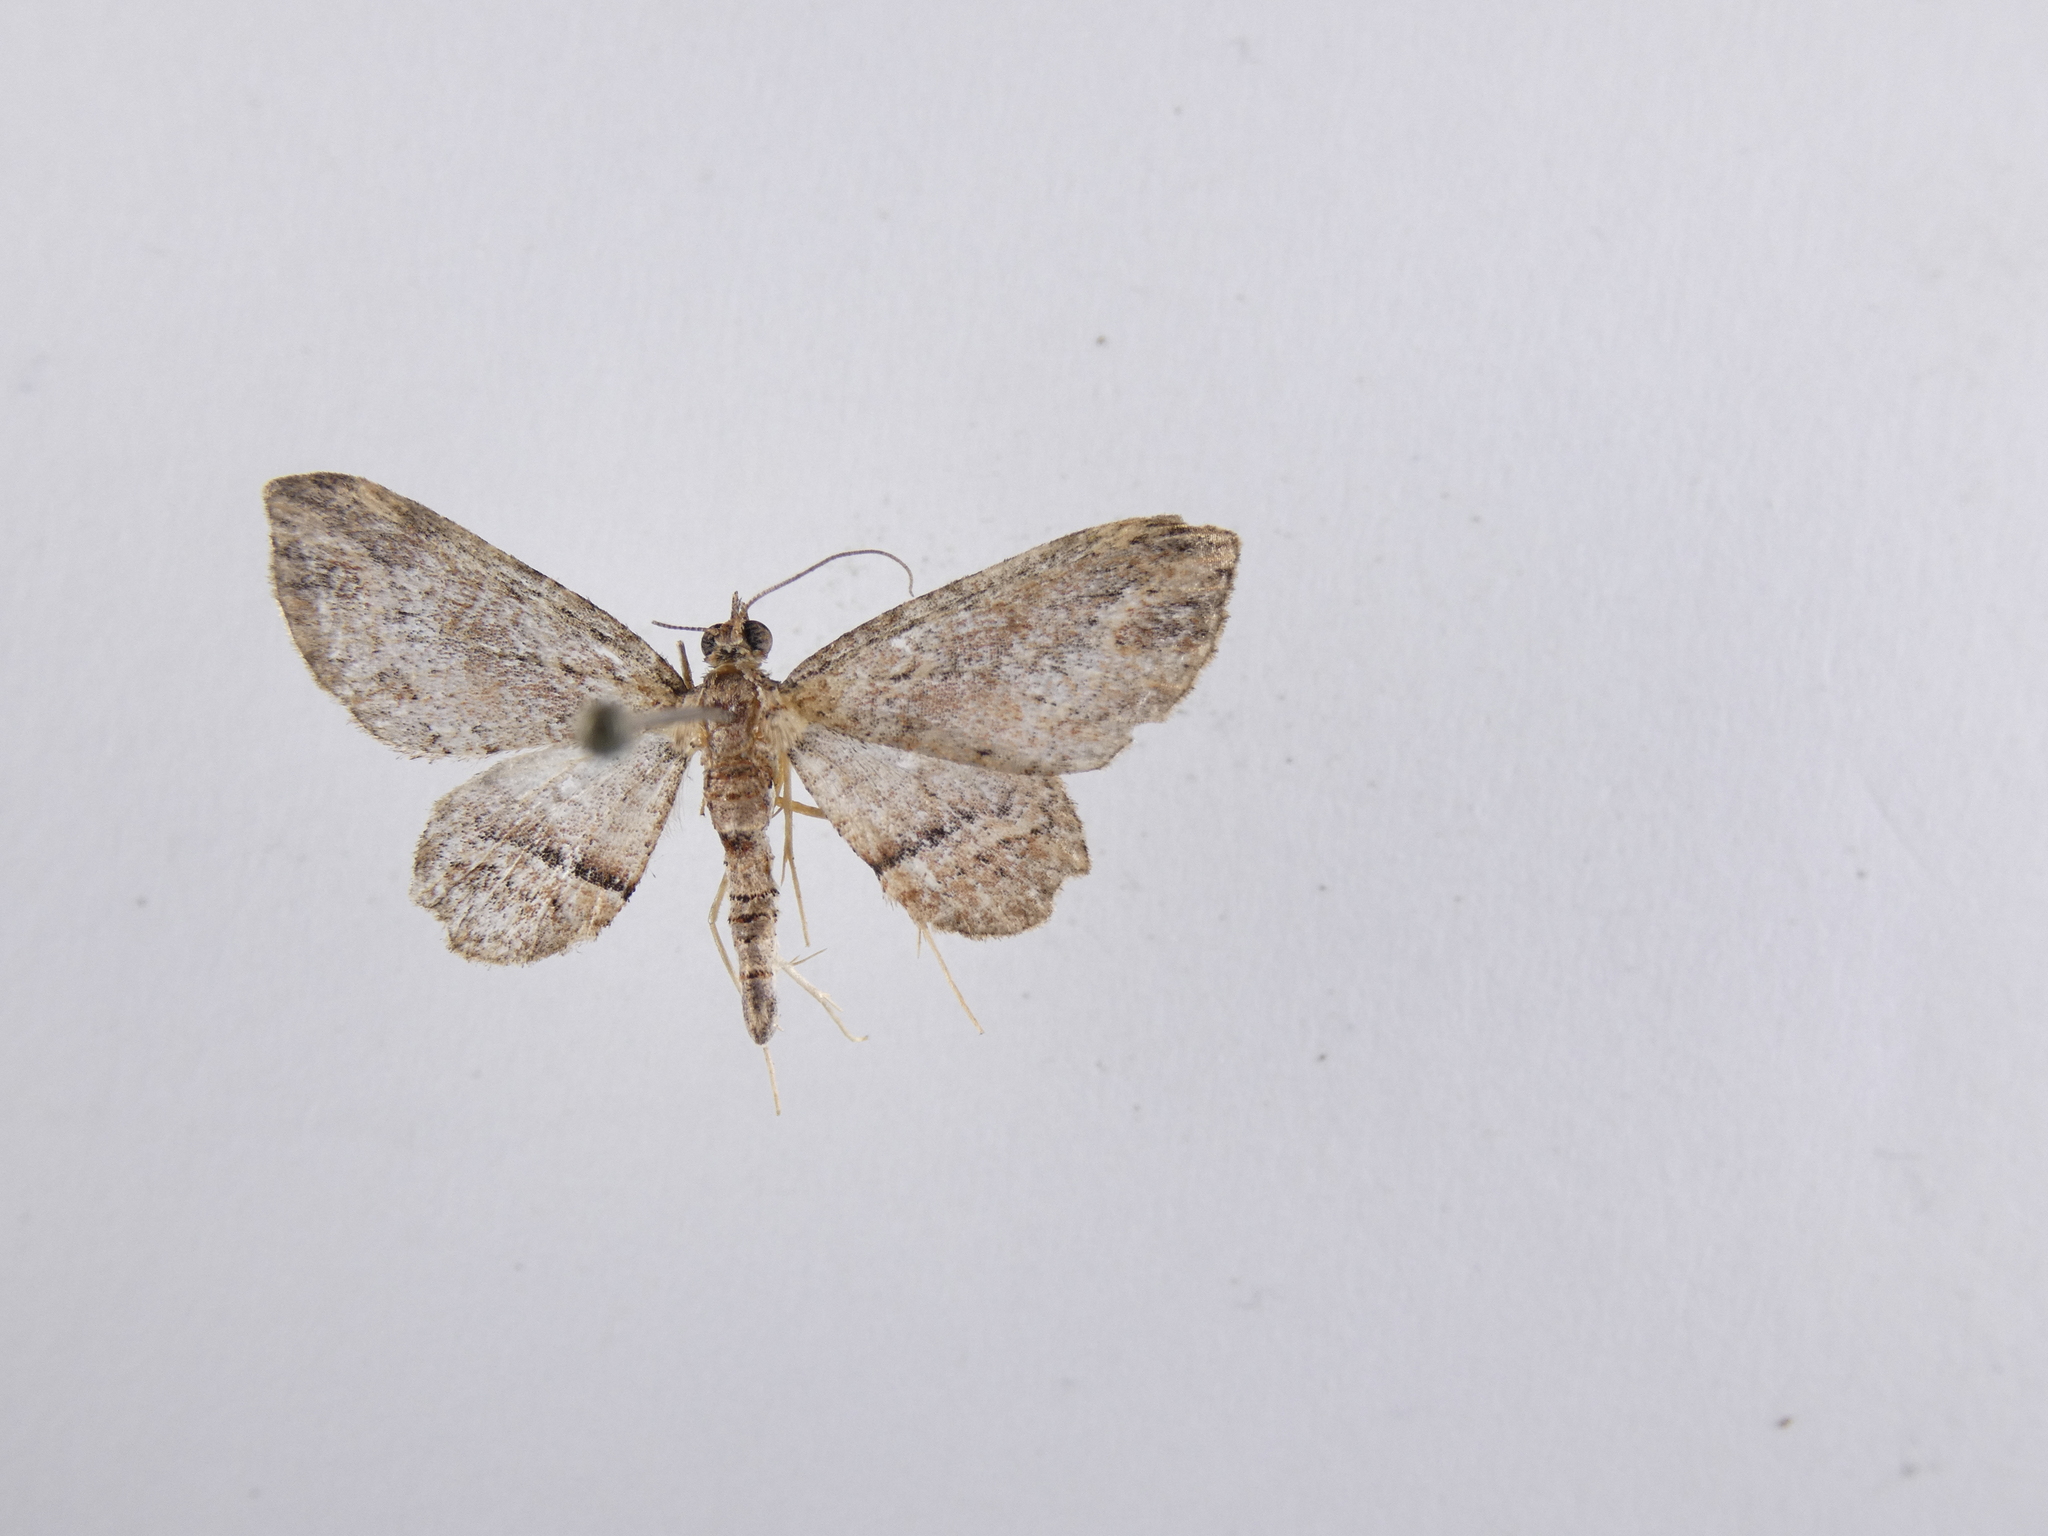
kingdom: Animalia
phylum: Arthropoda
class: Insecta
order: Lepidoptera
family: Geometridae
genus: Chloroclystis
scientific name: Chloroclystis filata
